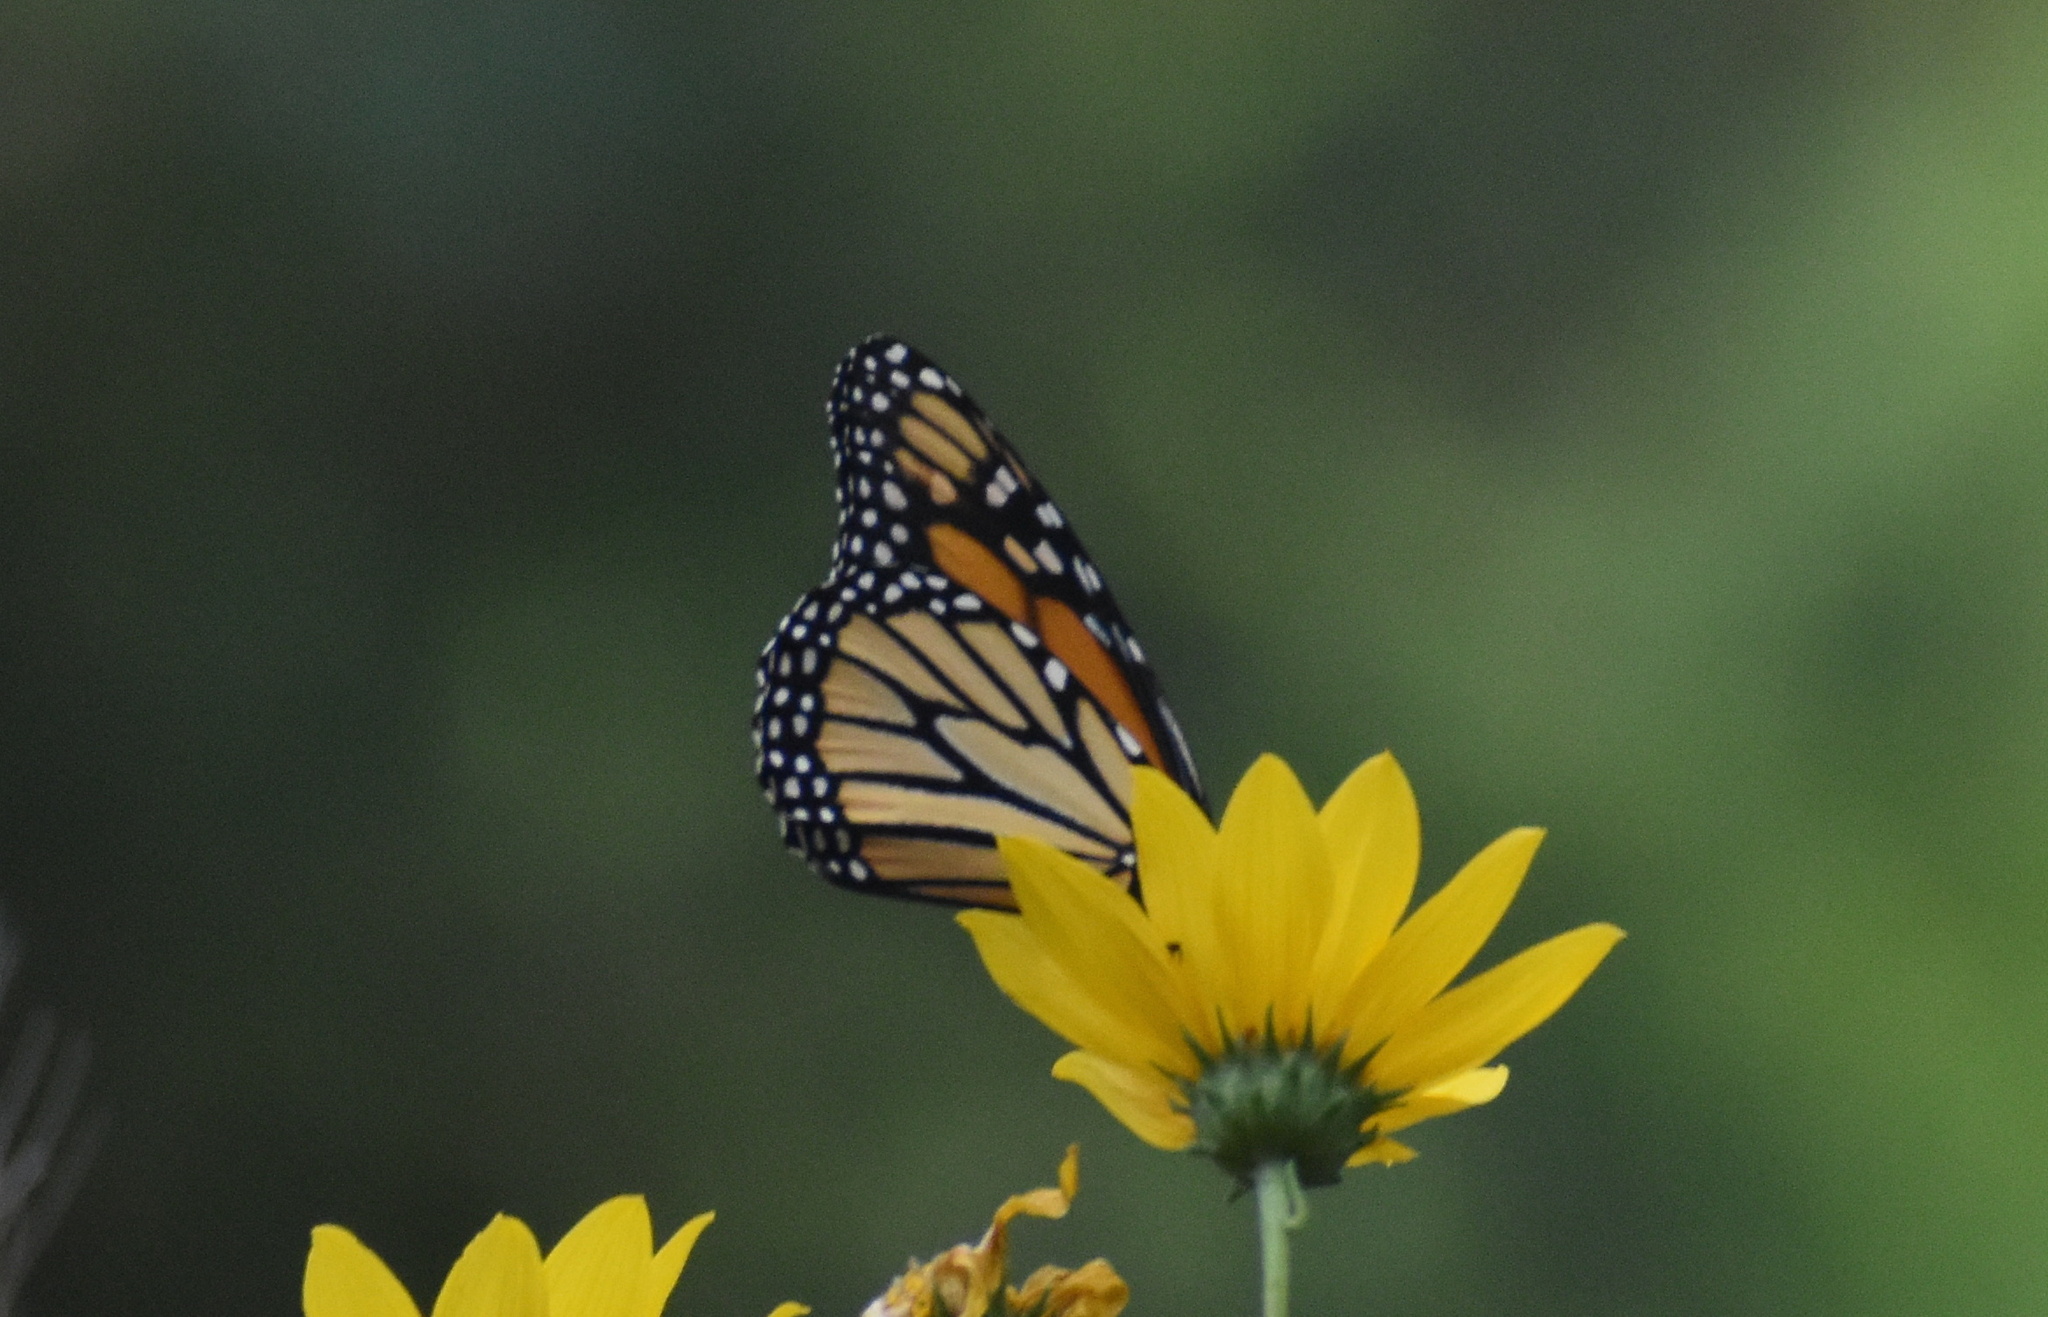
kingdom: Animalia
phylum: Arthropoda
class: Insecta
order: Lepidoptera
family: Nymphalidae
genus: Danaus
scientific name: Danaus plexippus
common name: Monarch
